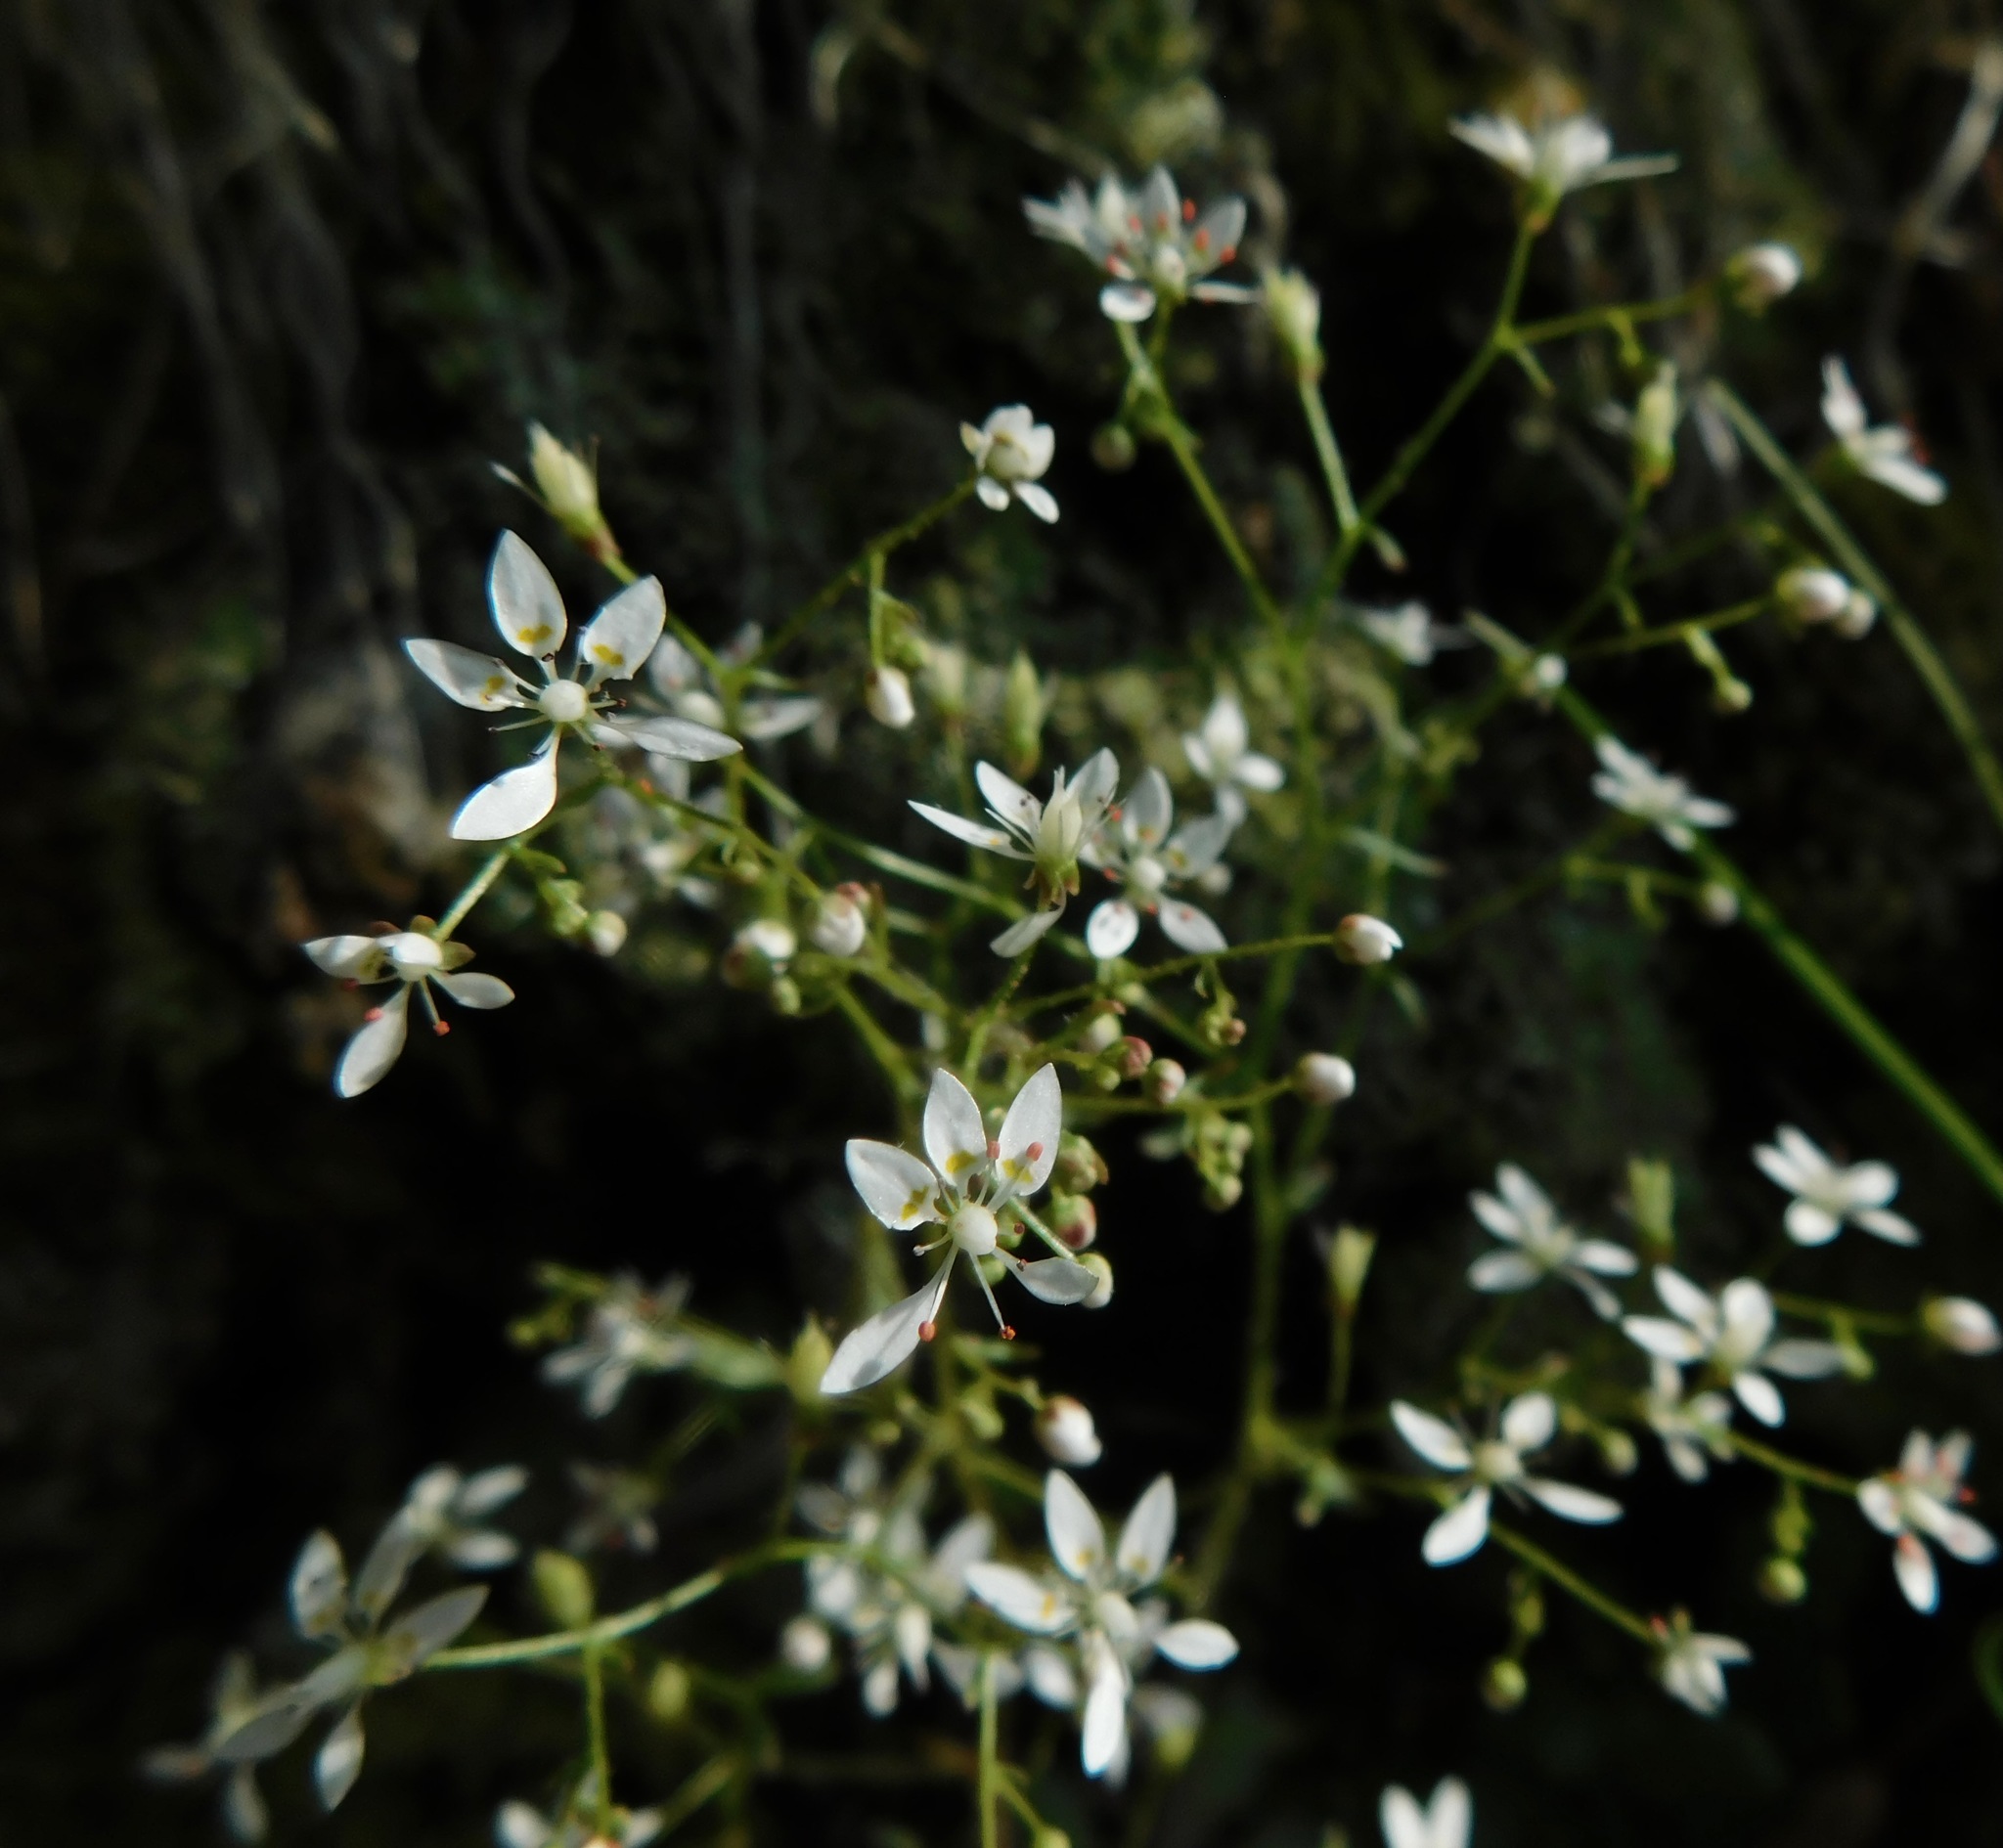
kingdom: Plantae
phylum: Tracheophyta
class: Magnoliopsida
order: Saxifragales
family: Saxifragaceae
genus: Micranthes
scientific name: Micranthes petiolaris
